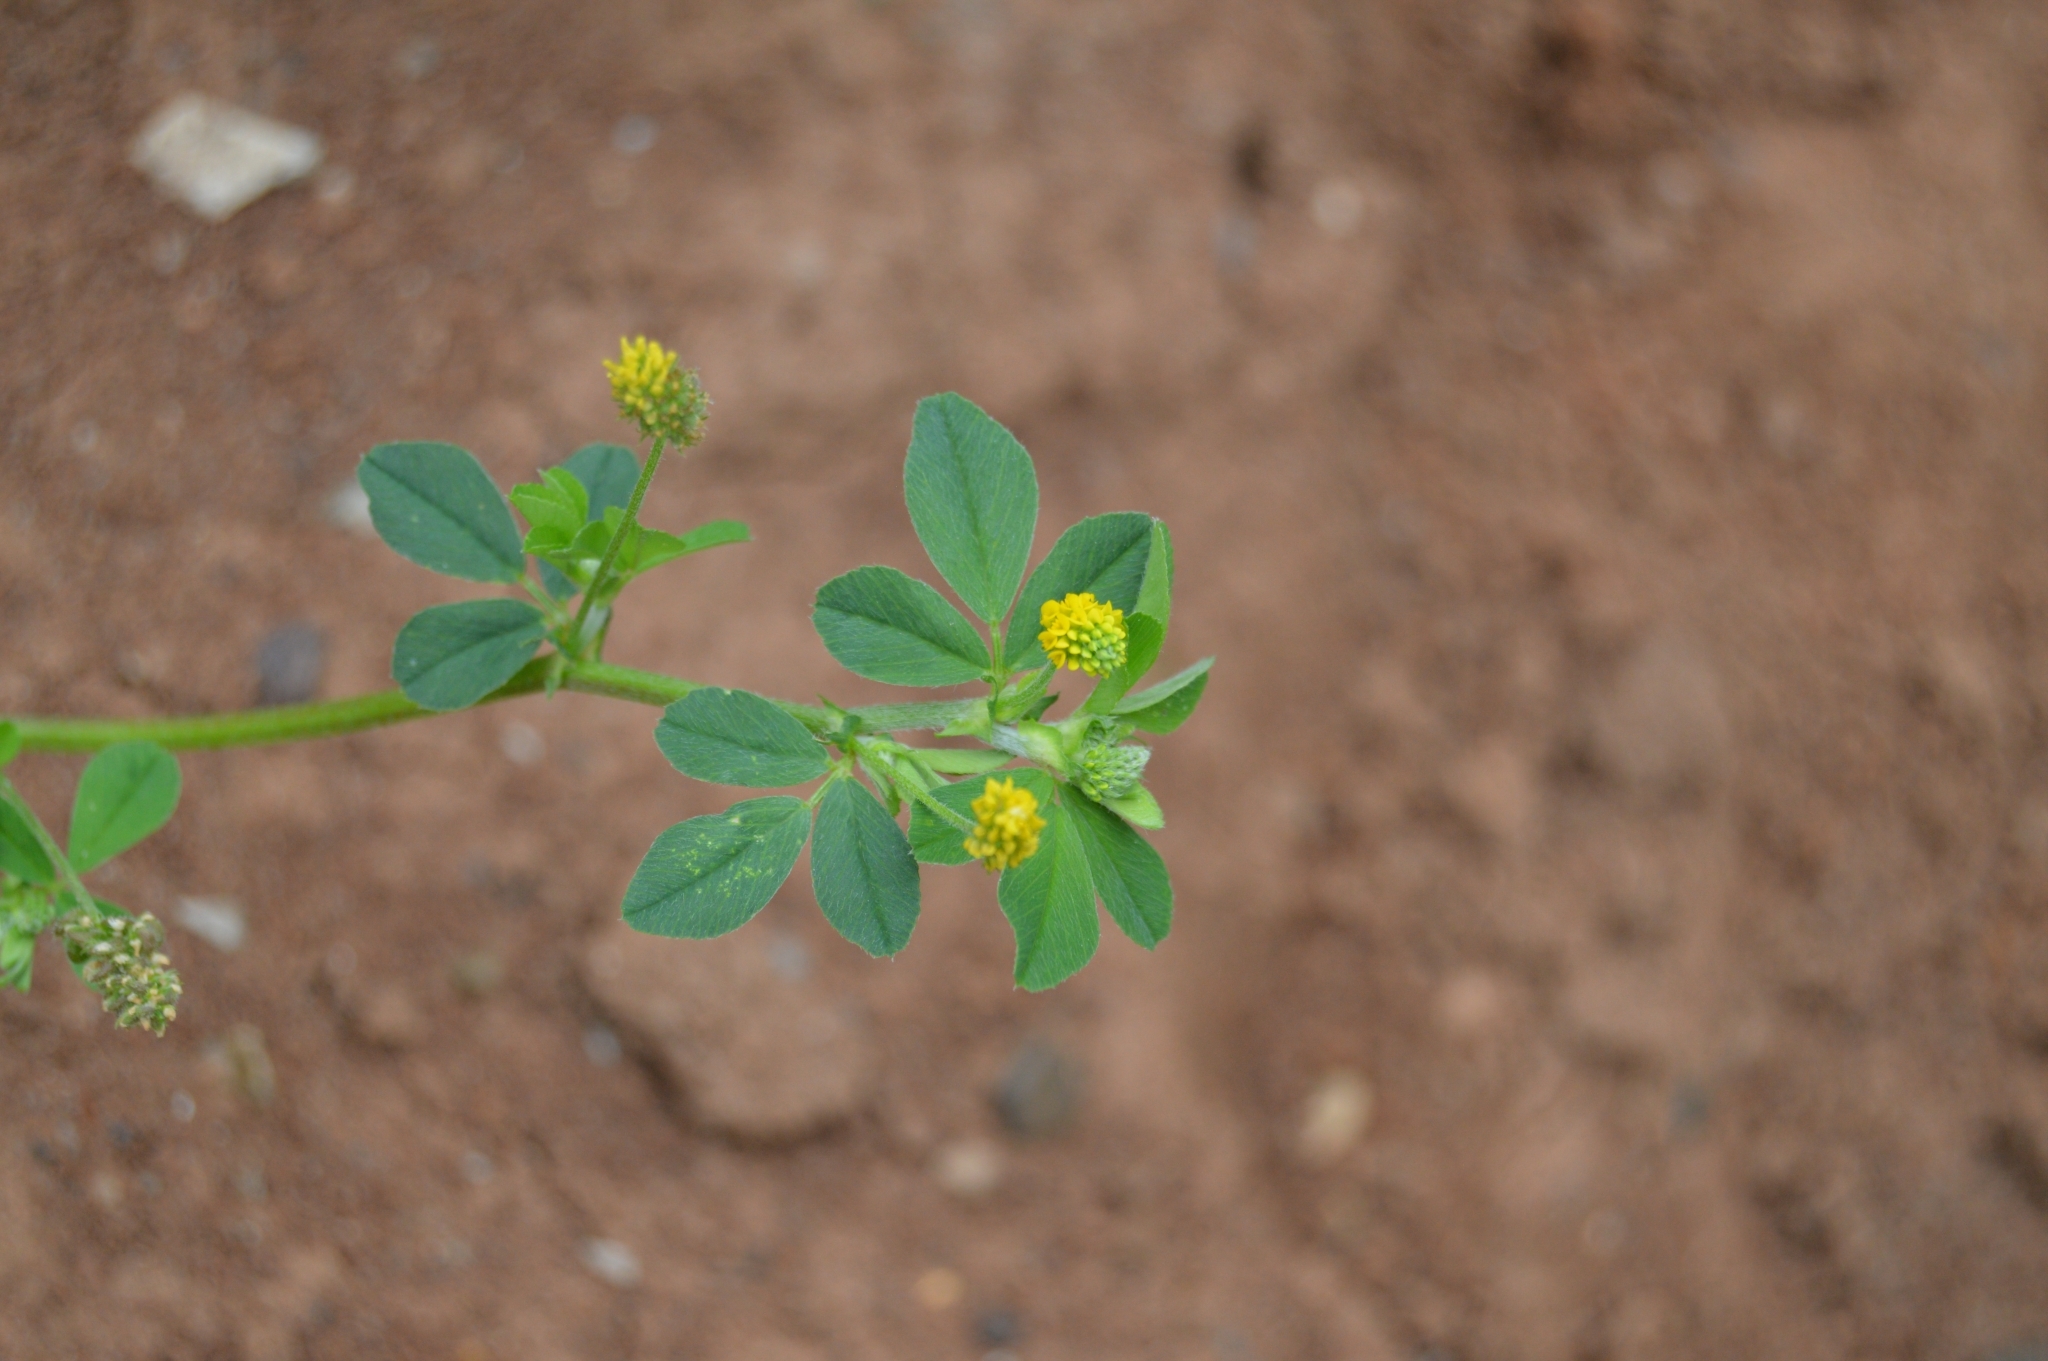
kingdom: Plantae
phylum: Tracheophyta
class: Magnoliopsida
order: Fabales
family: Fabaceae
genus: Medicago
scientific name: Medicago lupulina
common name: Black medick
